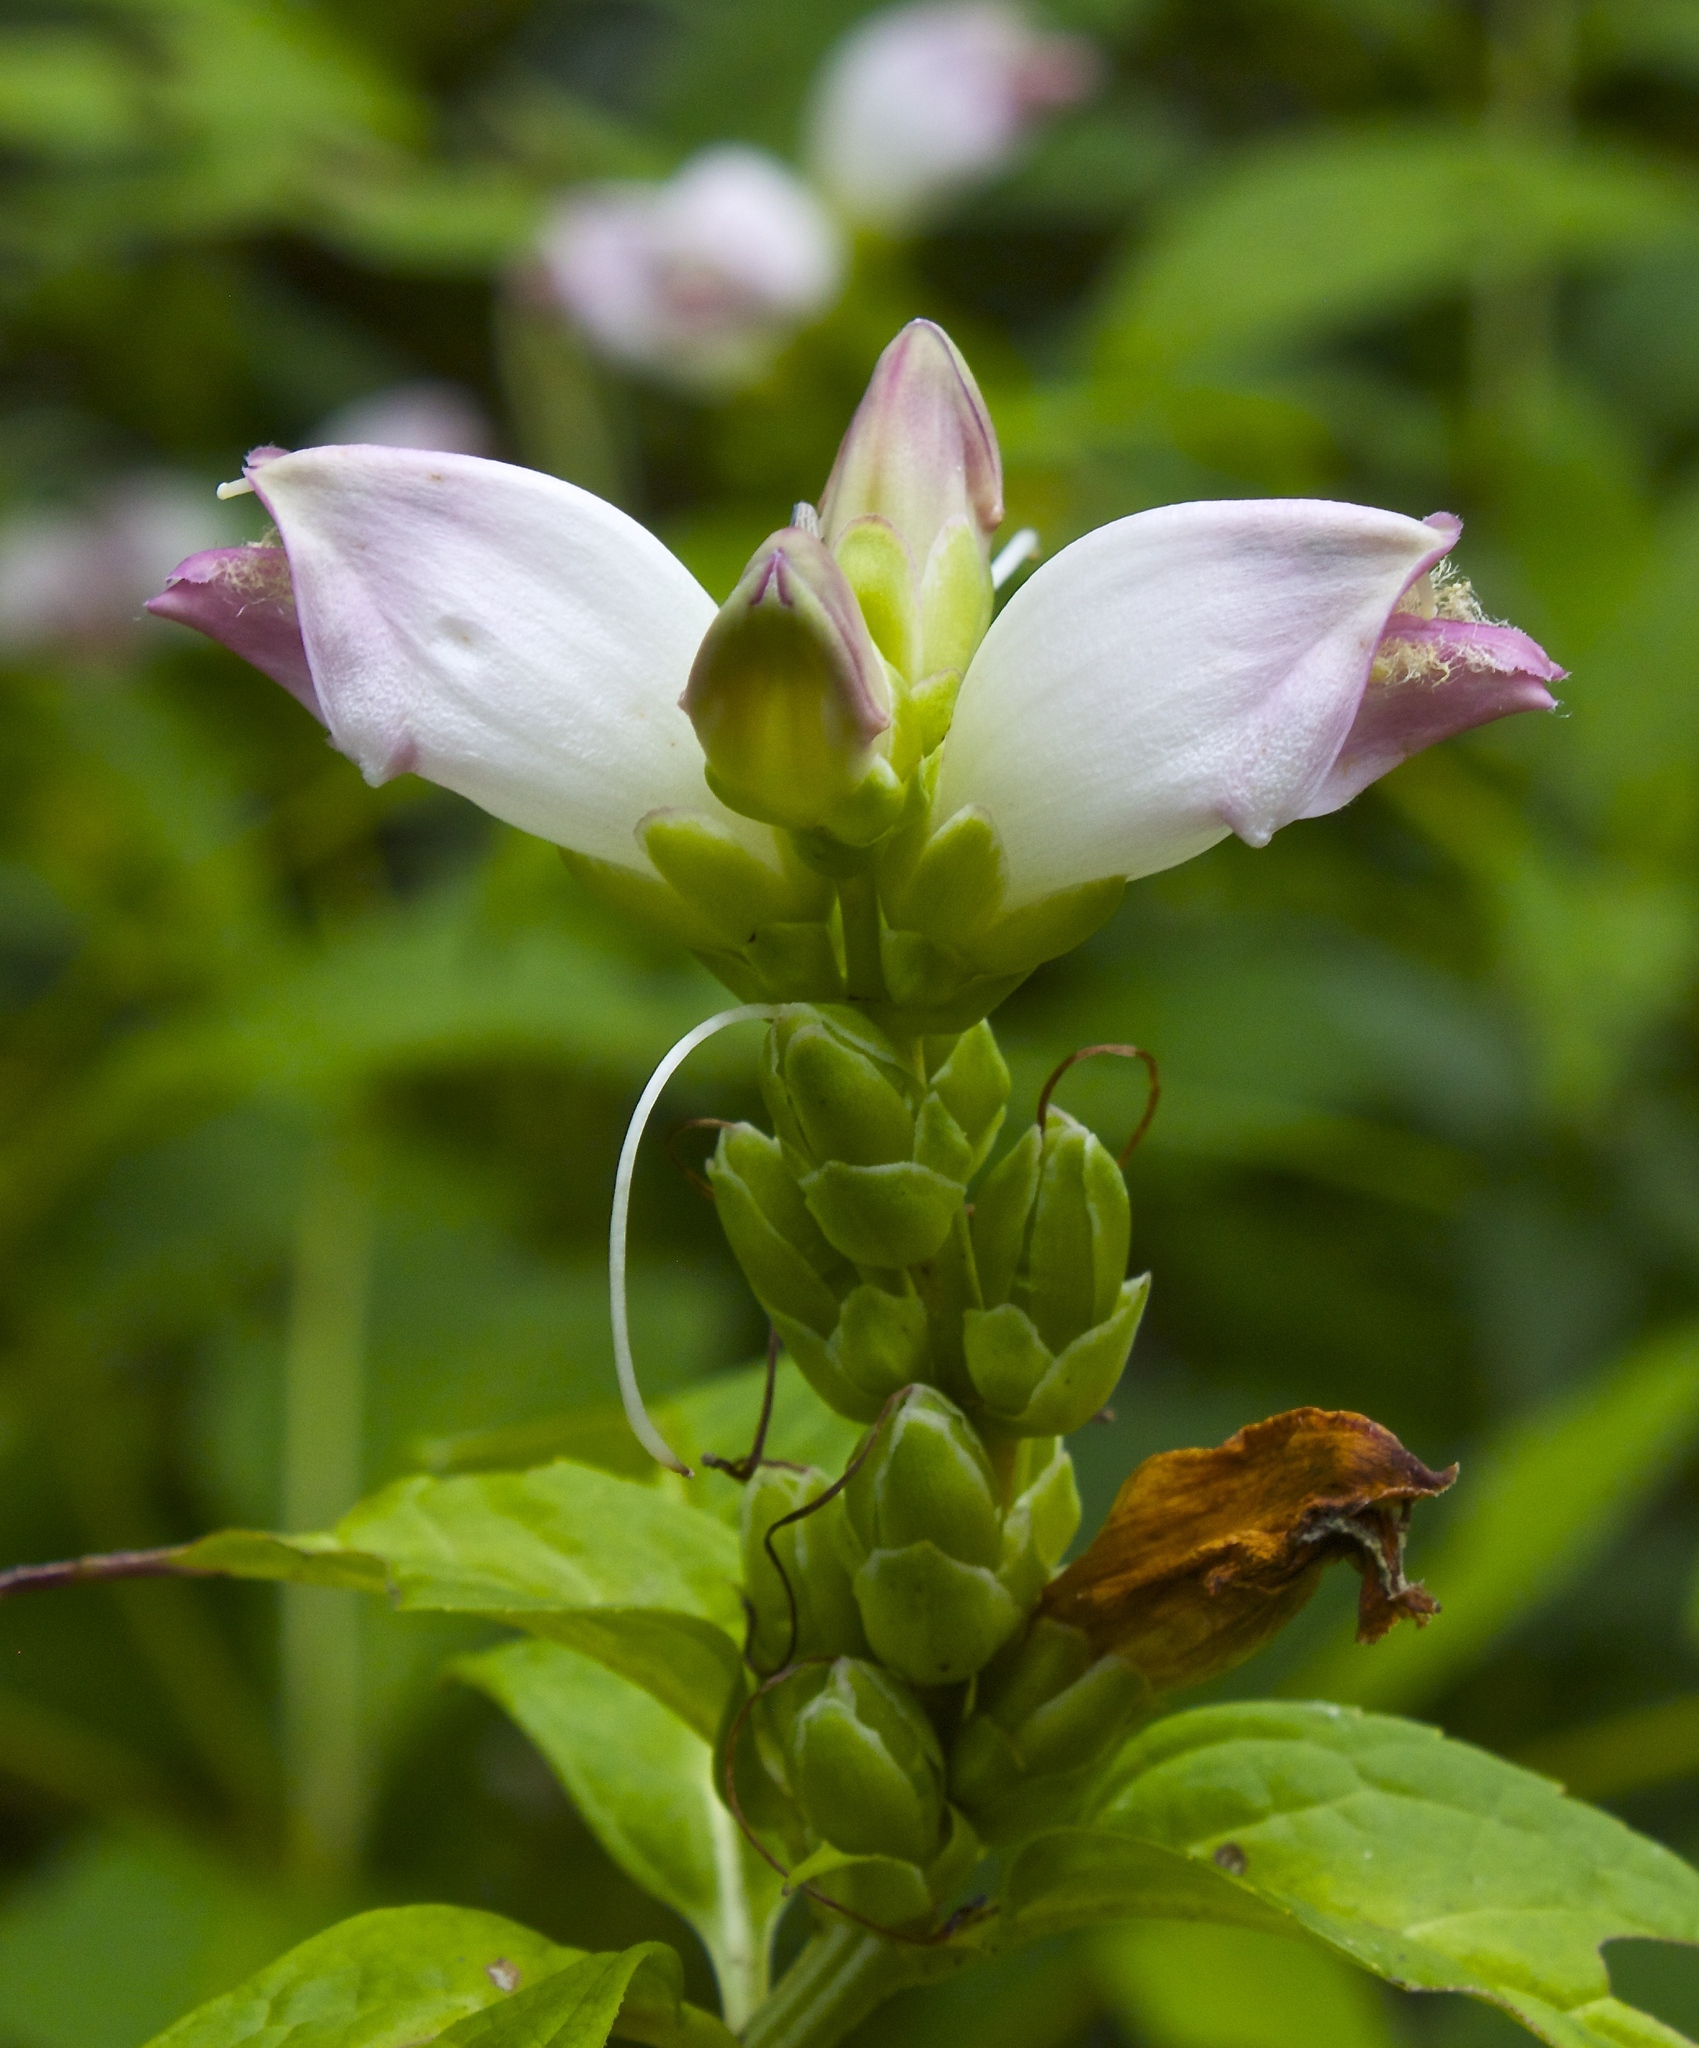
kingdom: Plantae
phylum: Tracheophyta
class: Magnoliopsida
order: Lamiales
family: Plantaginaceae
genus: Chelone
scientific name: Chelone glabra
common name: Snakehead
